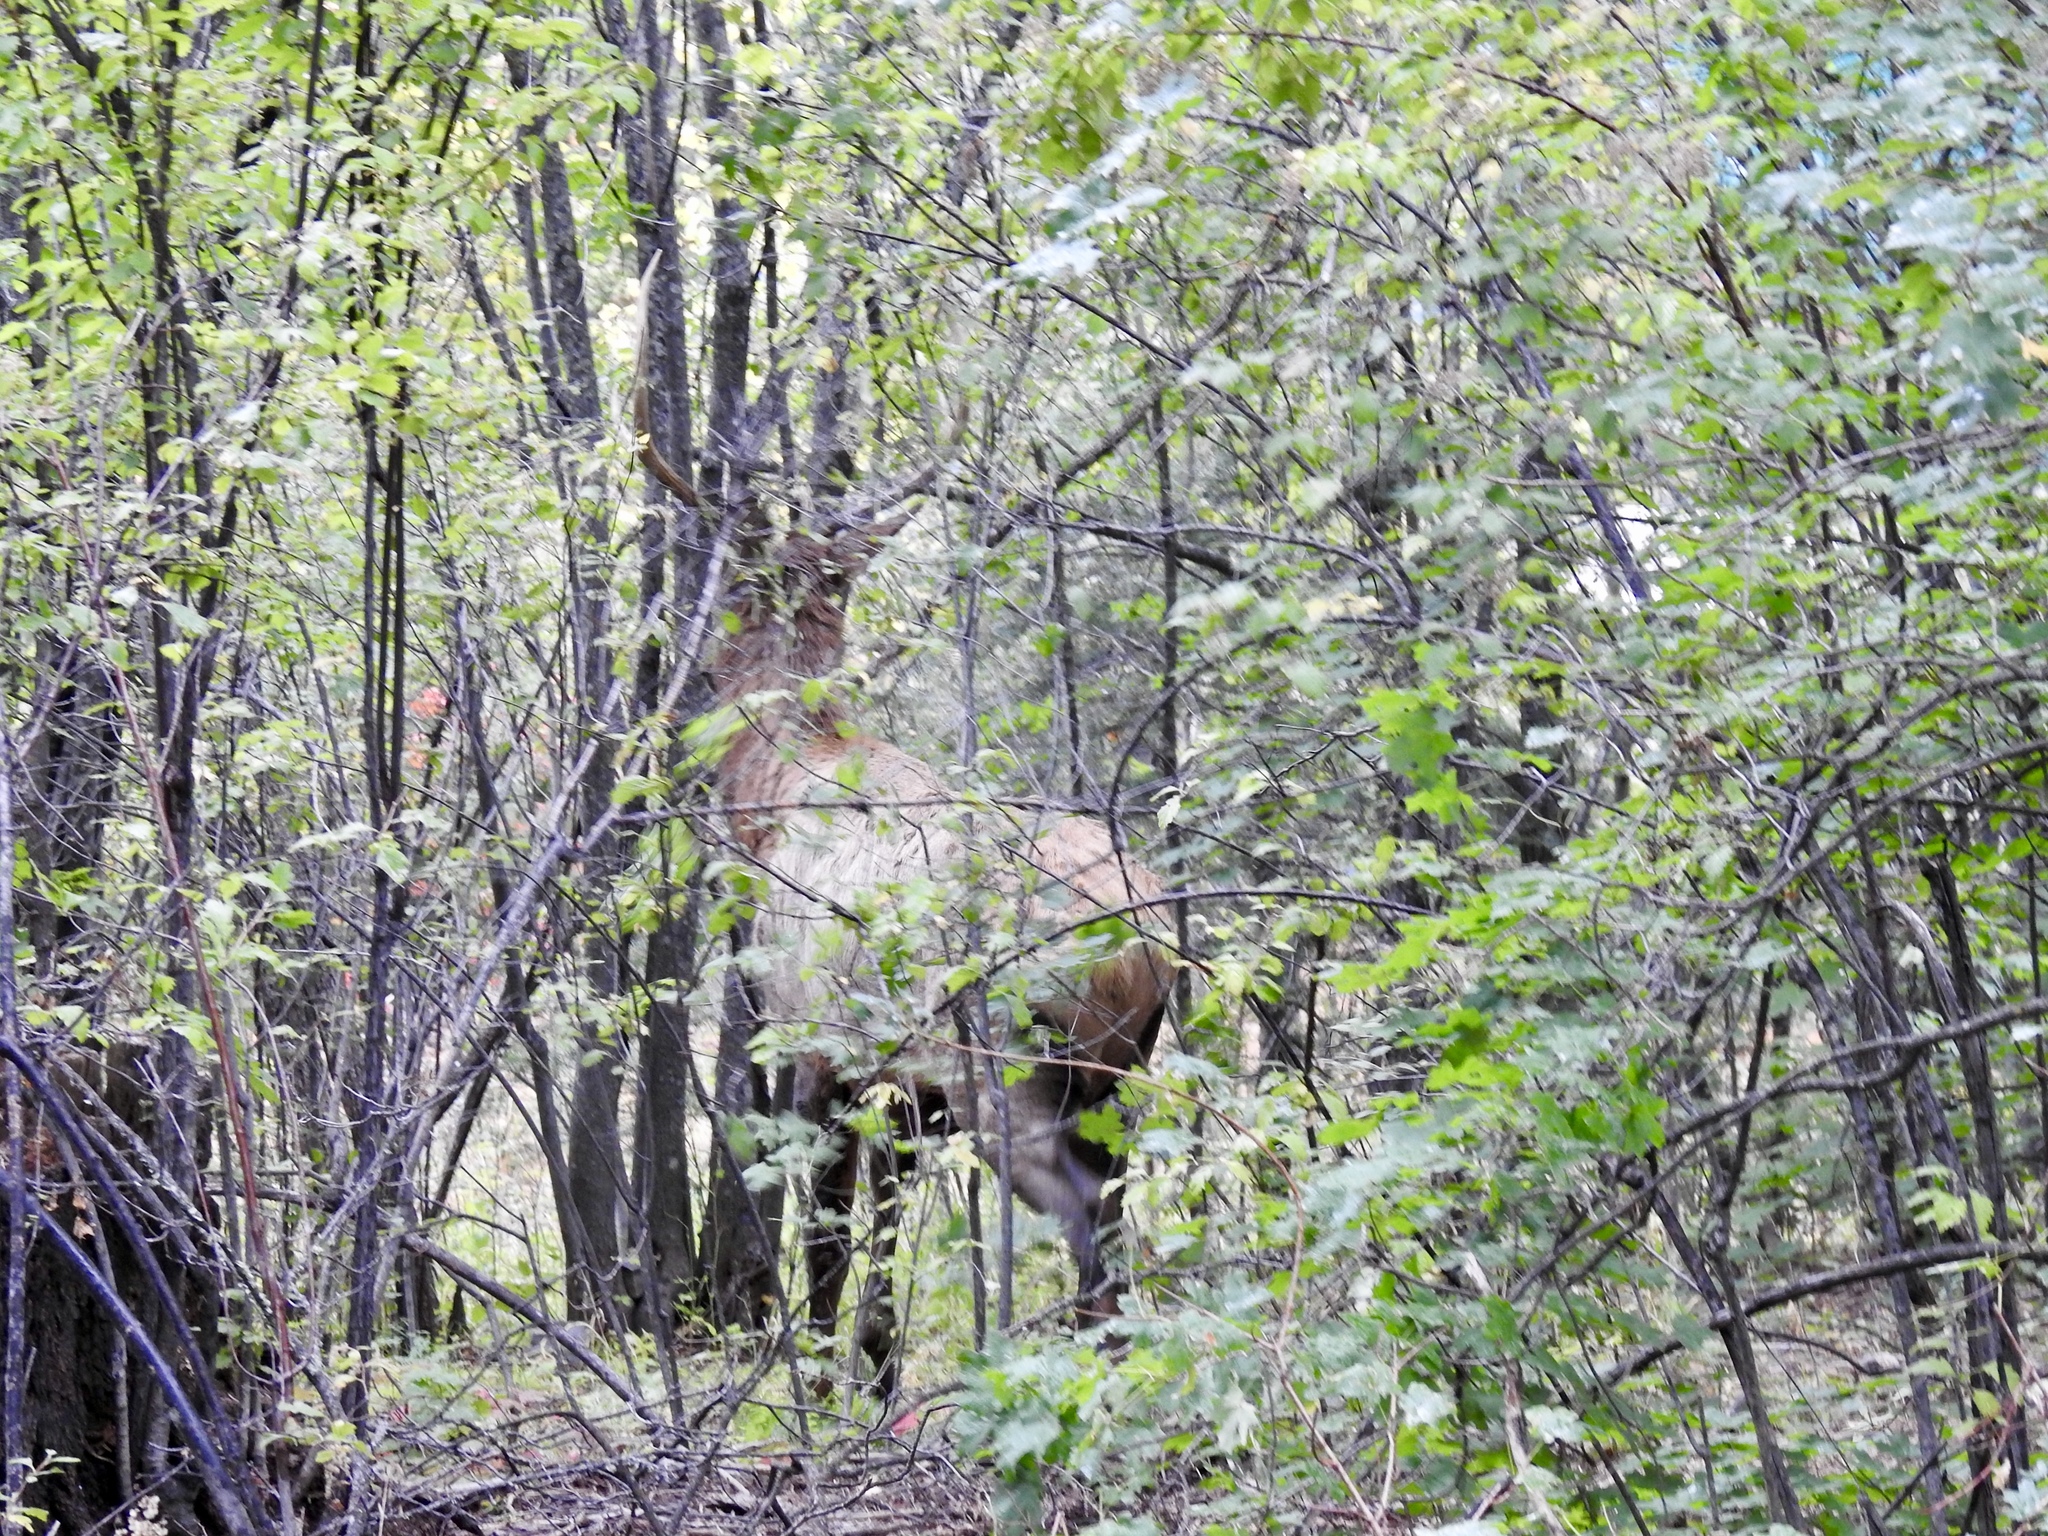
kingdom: Animalia
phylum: Chordata
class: Mammalia
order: Artiodactyla
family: Cervidae
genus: Cervus
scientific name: Cervus elaphus
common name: Red deer
